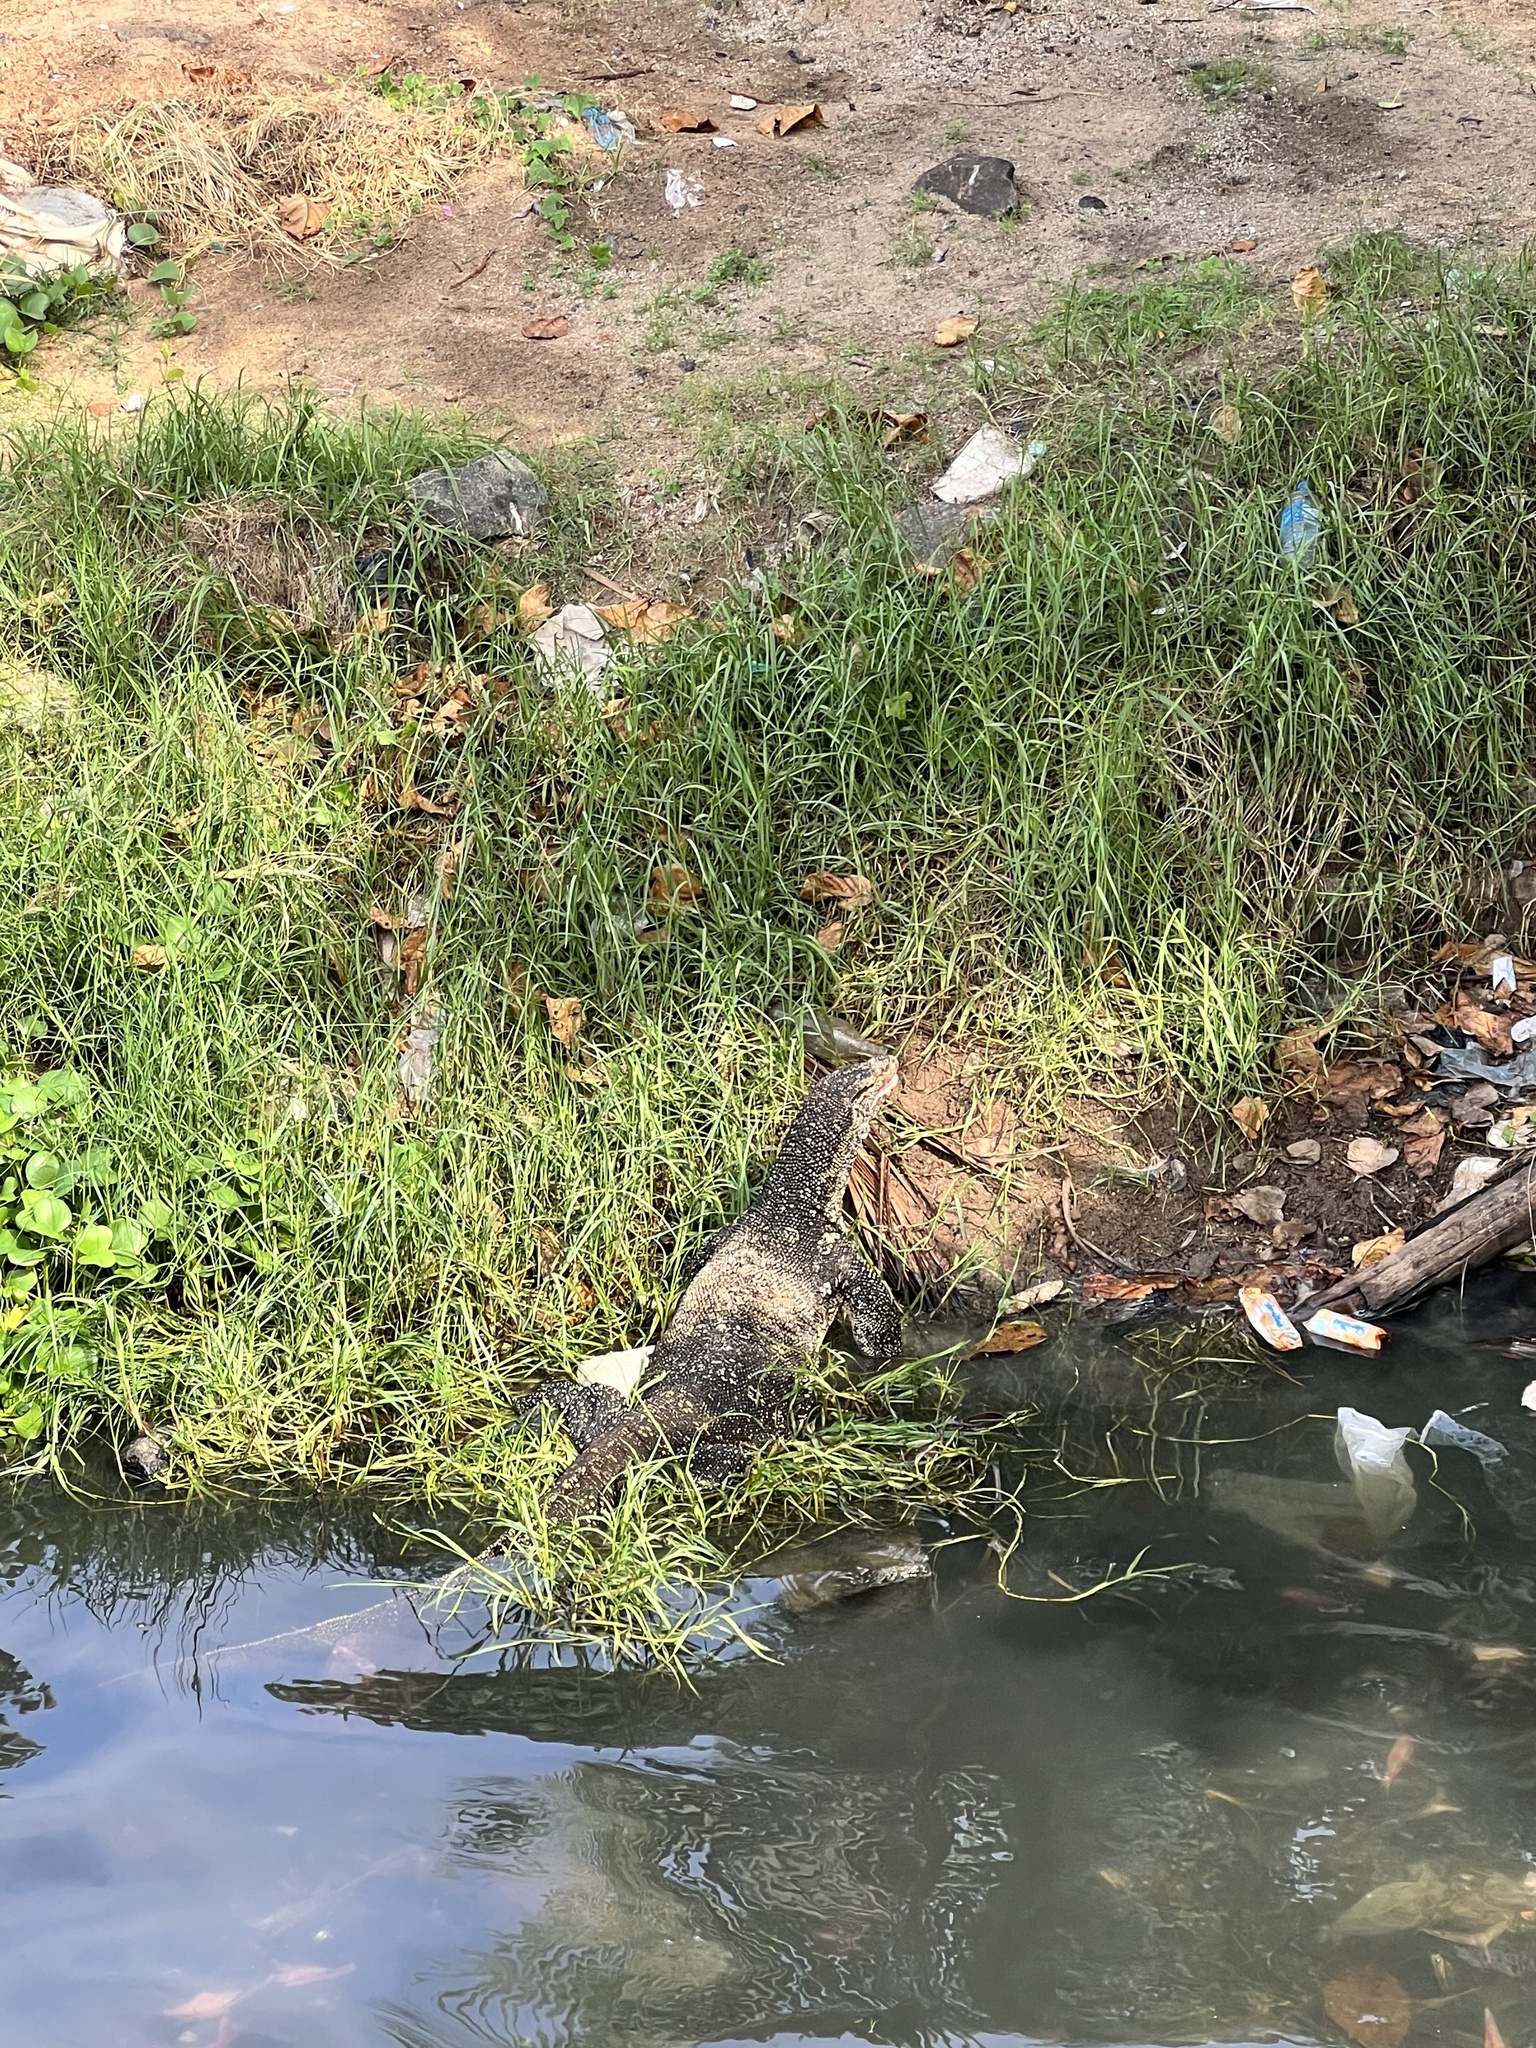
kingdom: Animalia
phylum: Chordata
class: Squamata
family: Varanidae
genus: Varanus
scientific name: Varanus salvator
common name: Common water monitor
